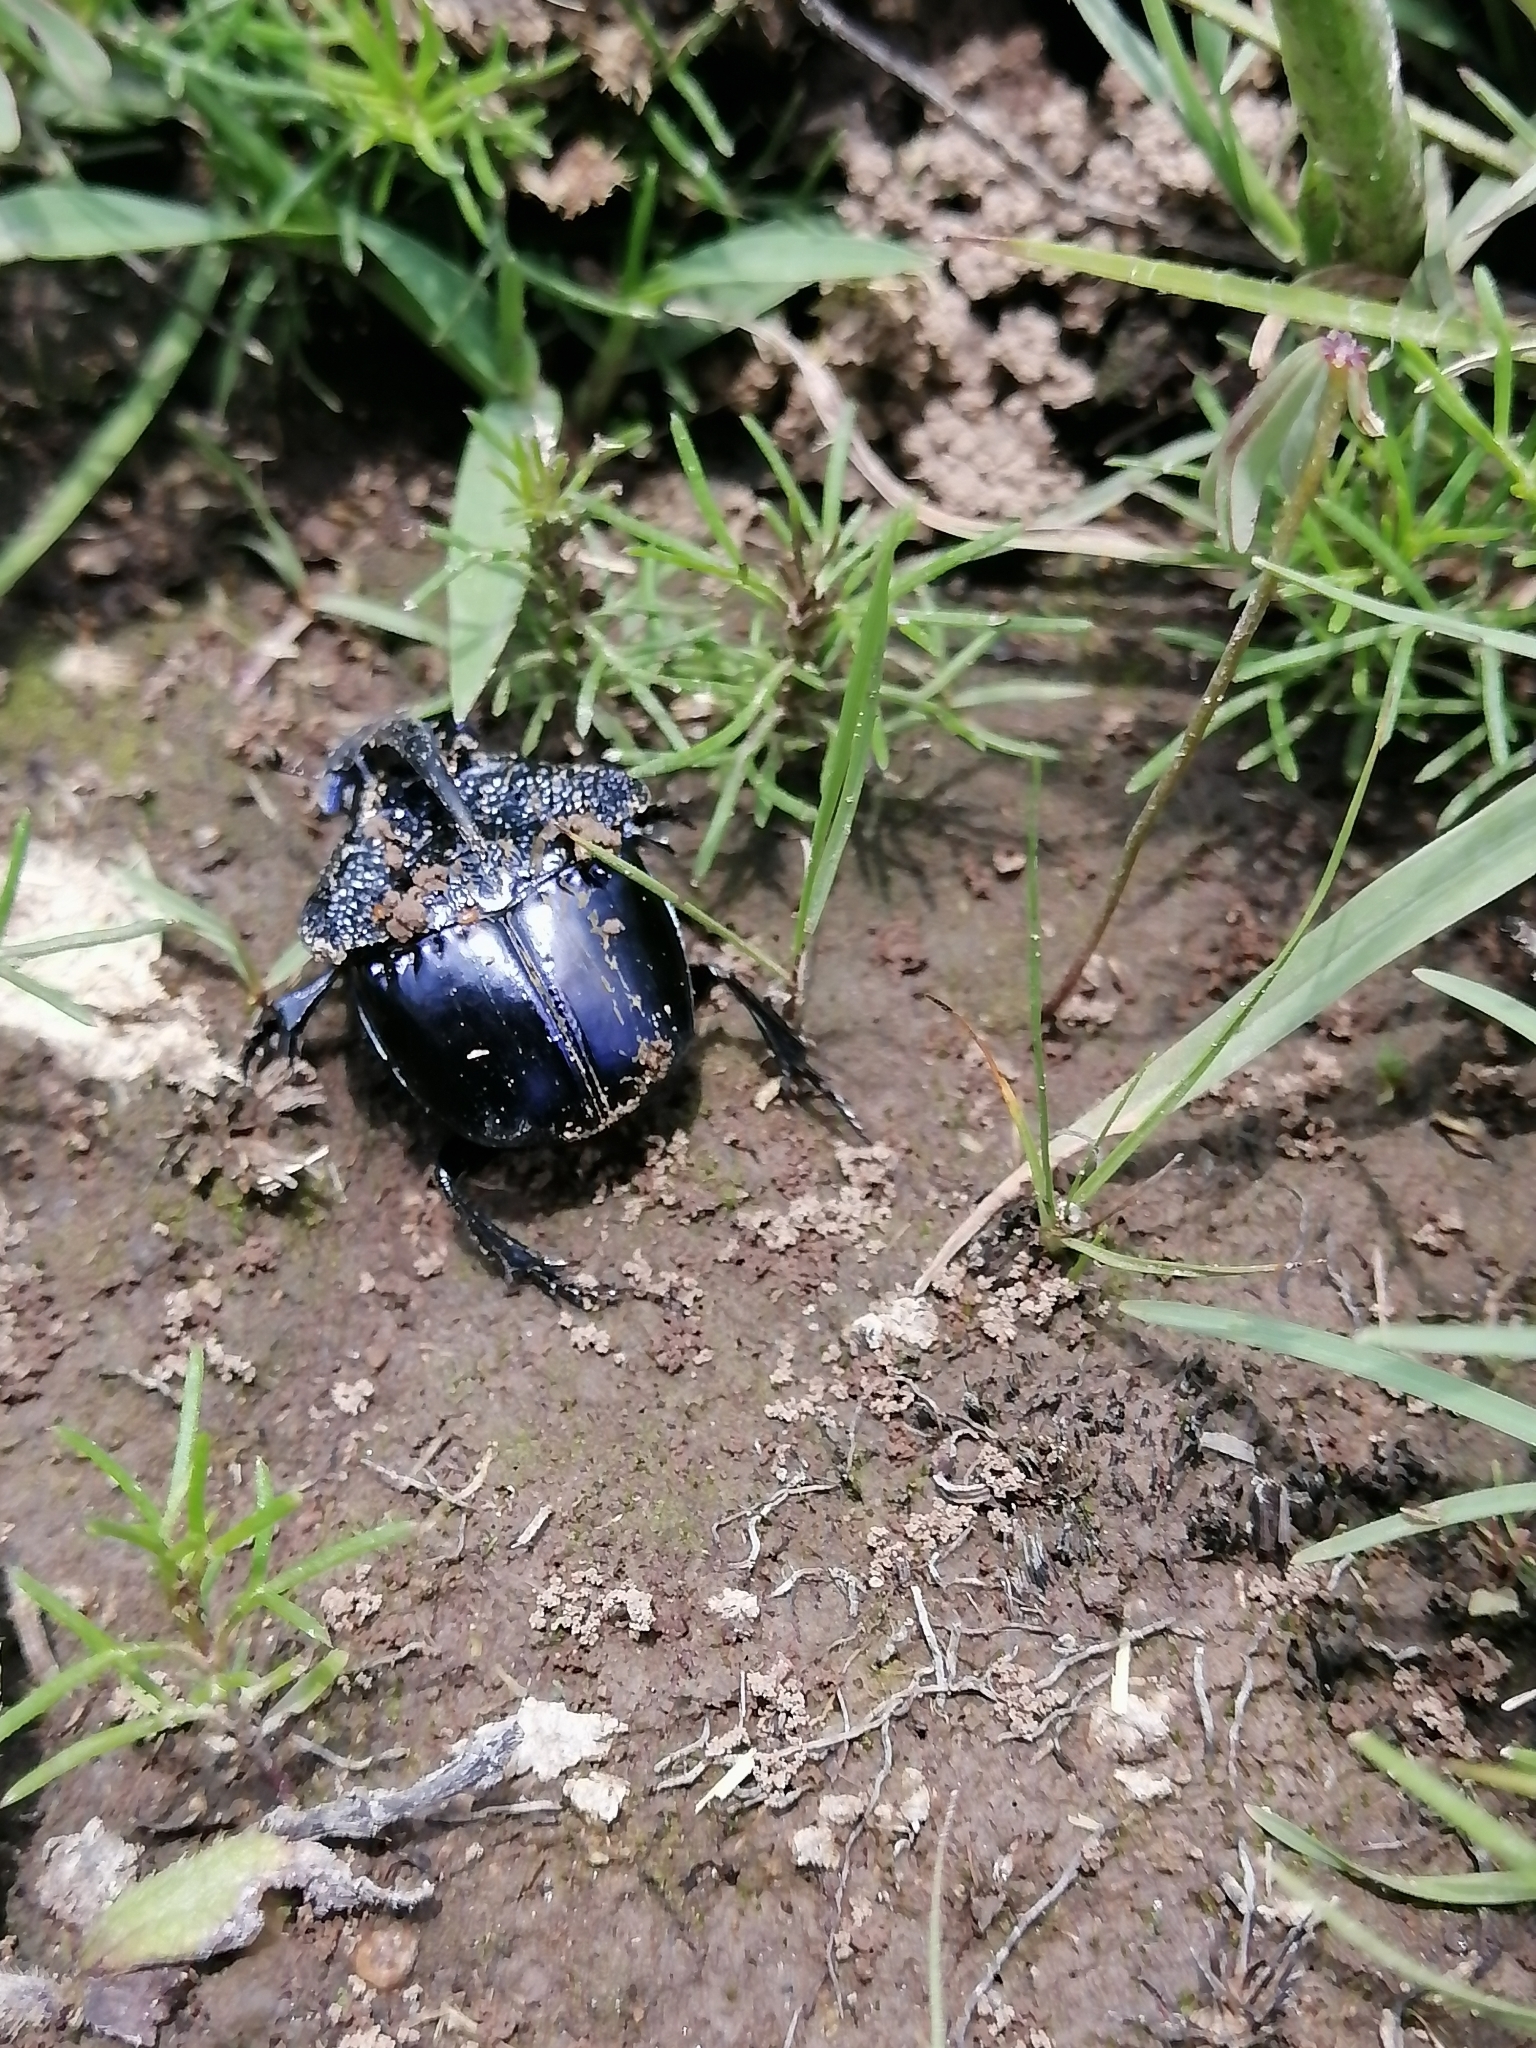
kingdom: Animalia
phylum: Arthropoda
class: Insecta
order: Coleoptera
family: Scarabaeidae
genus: Phanaeus
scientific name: Phanaeus quadridens
